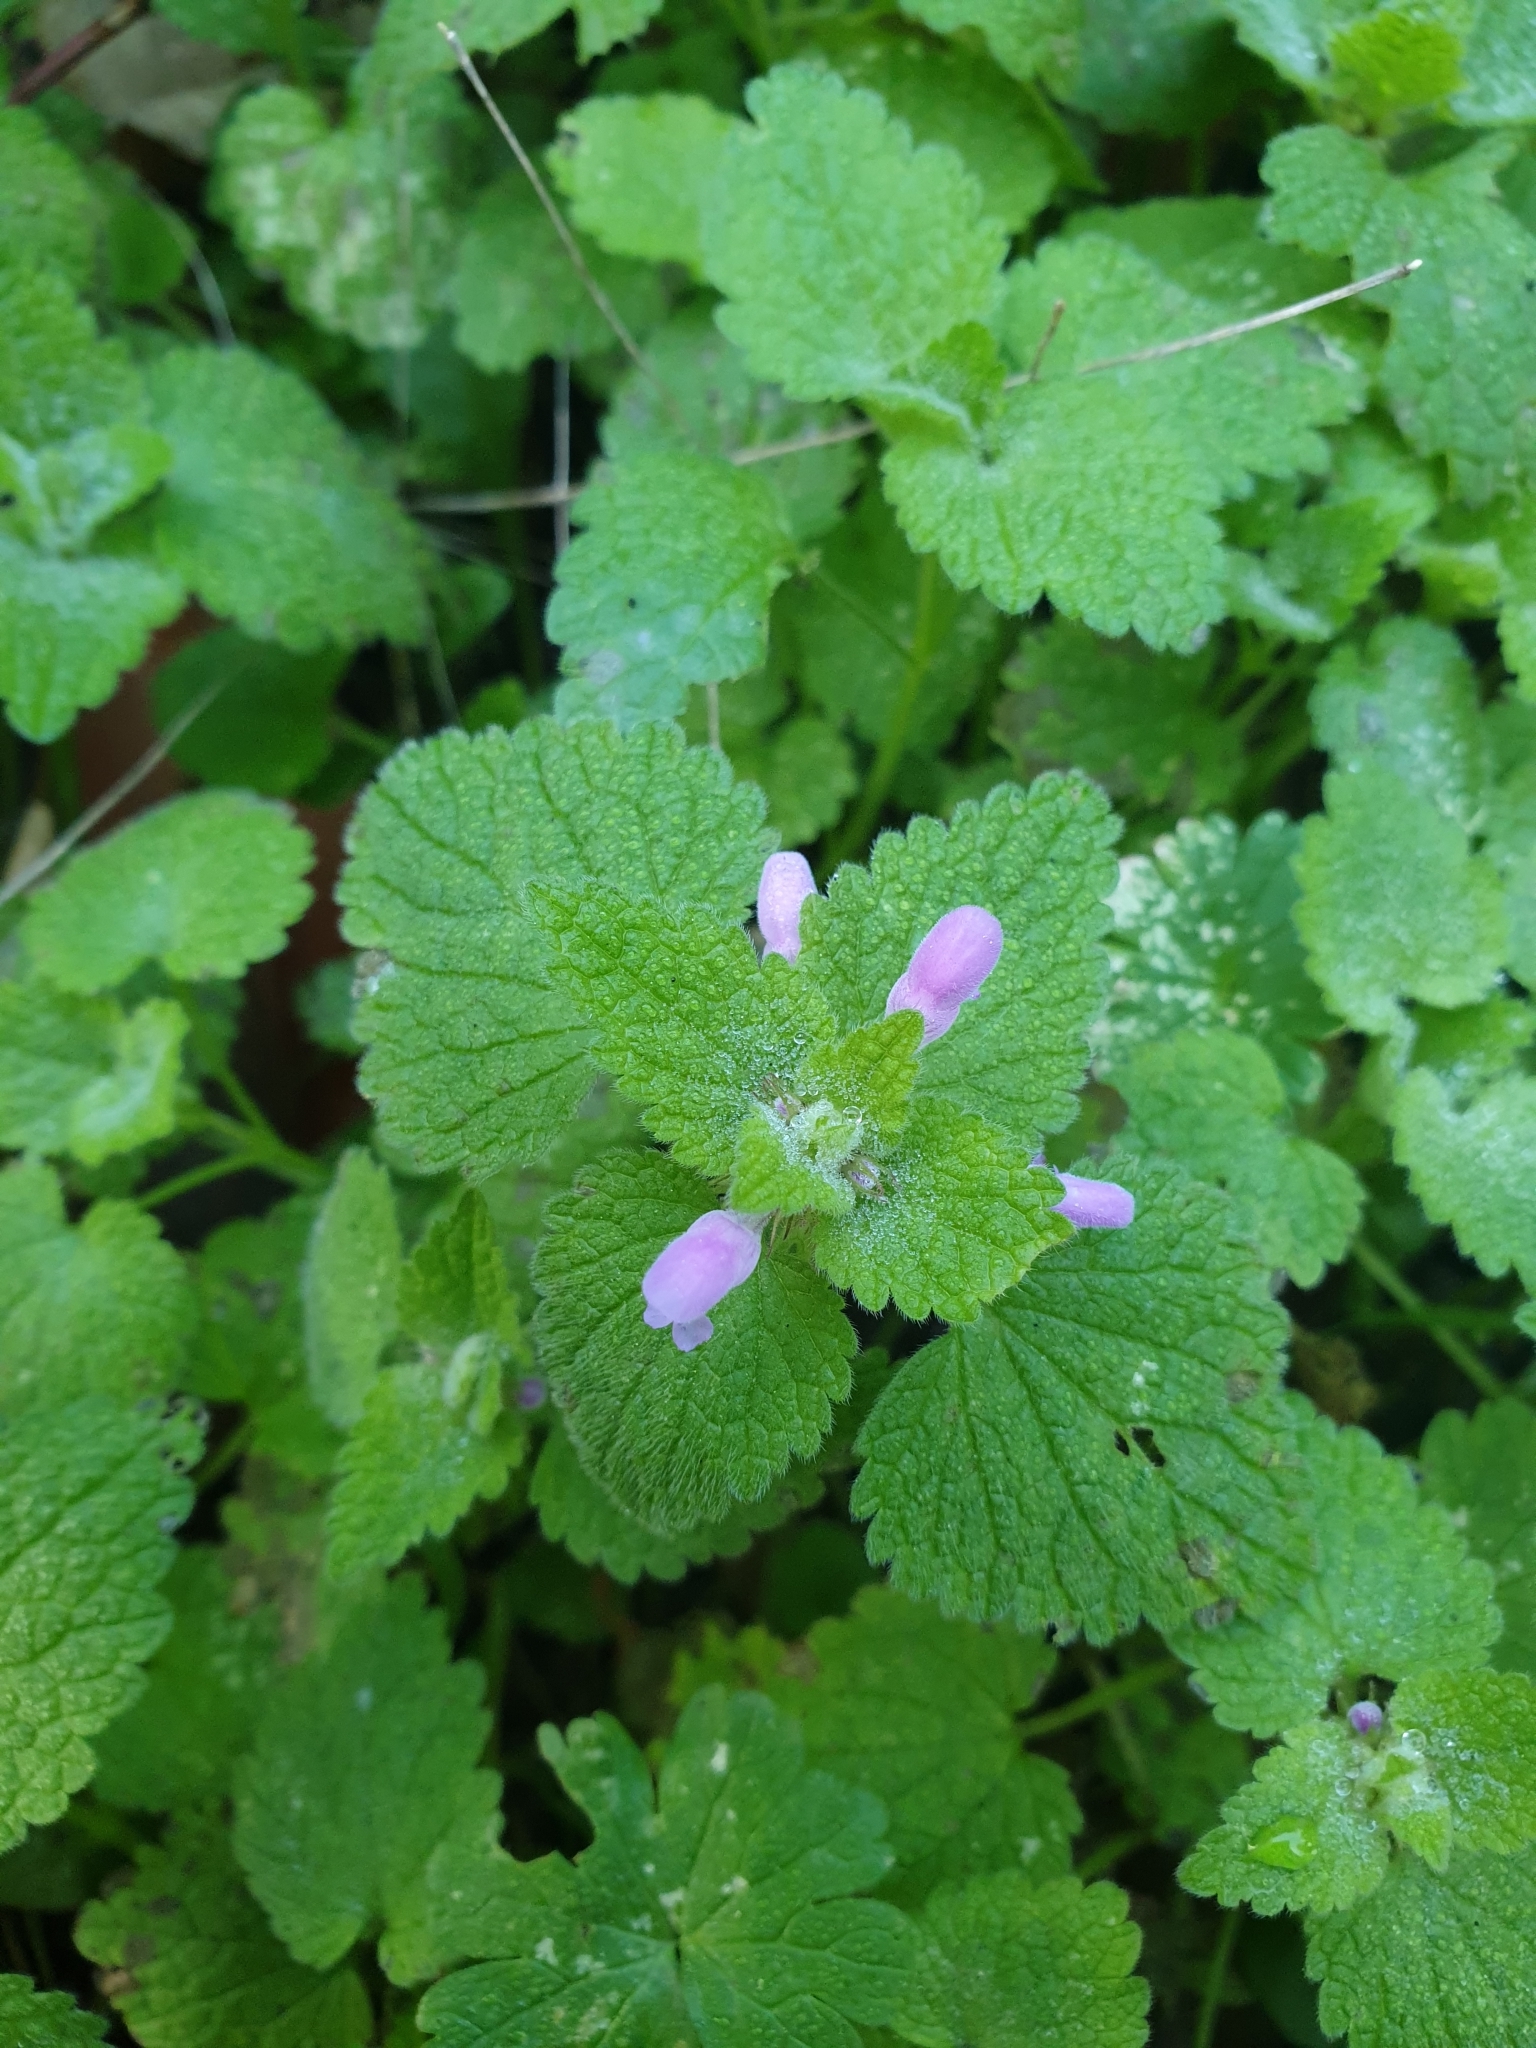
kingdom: Plantae
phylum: Tracheophyta
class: Magnoliopsida
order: Lamiales
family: Lamiaceae
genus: Lamium
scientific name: Lamium purpureum
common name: Red dead-nettle
